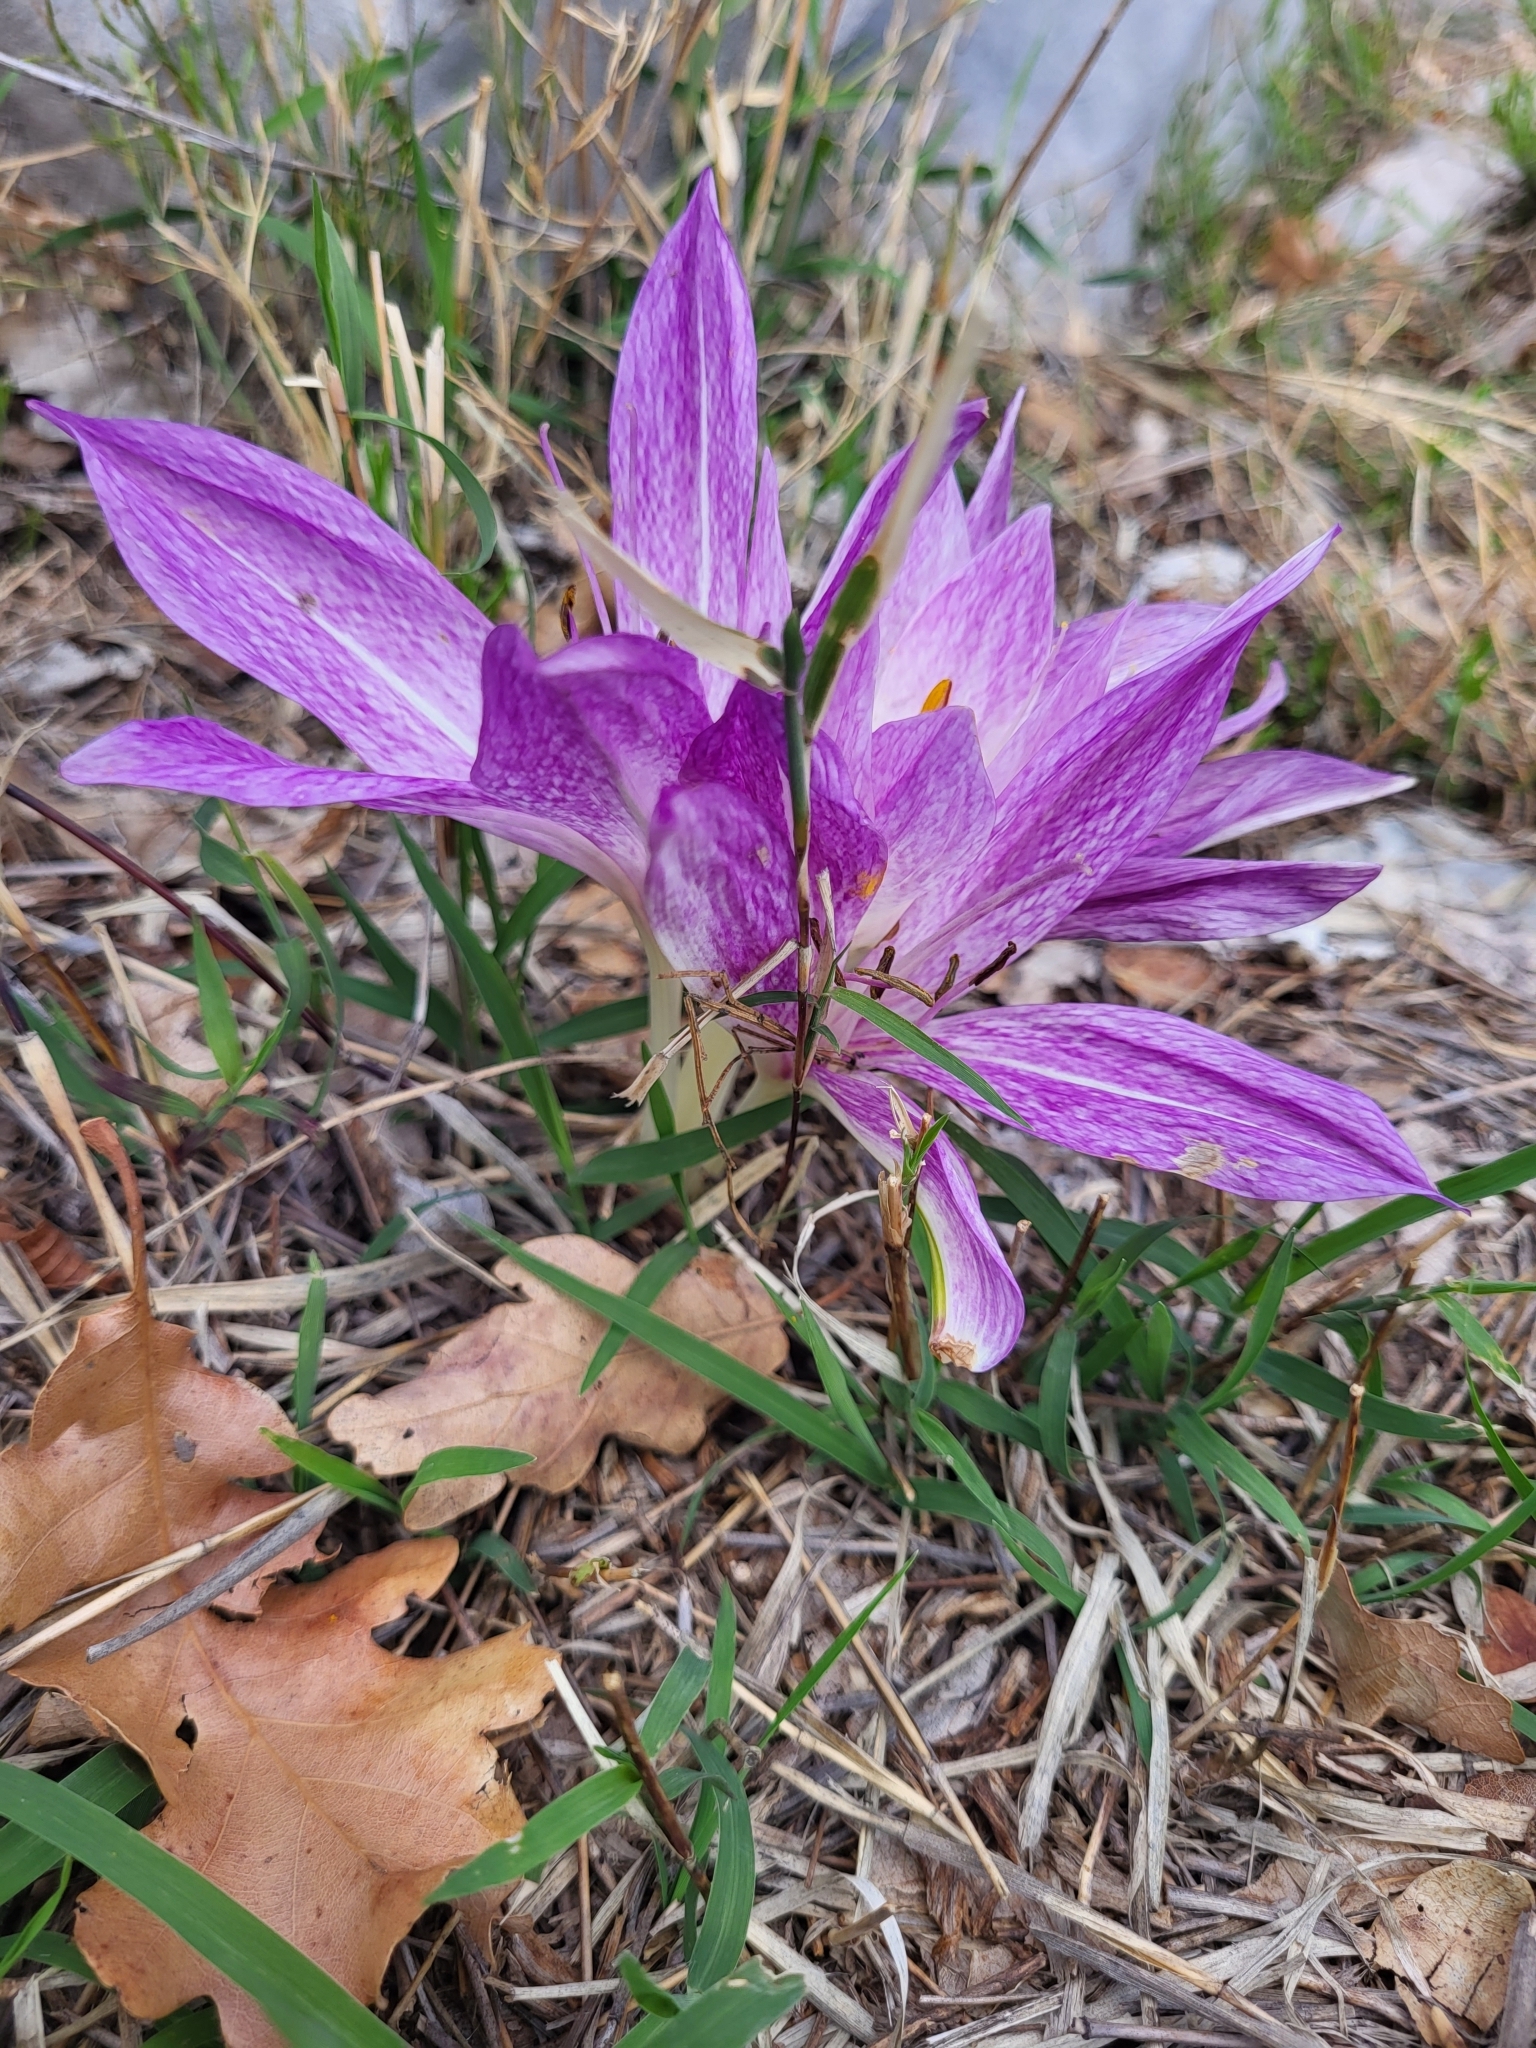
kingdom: Plantae
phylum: Tracheophyta
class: Liliopsida
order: Liliales
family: Colchicaceae
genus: Colchicum
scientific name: Colchicum haynaldii
